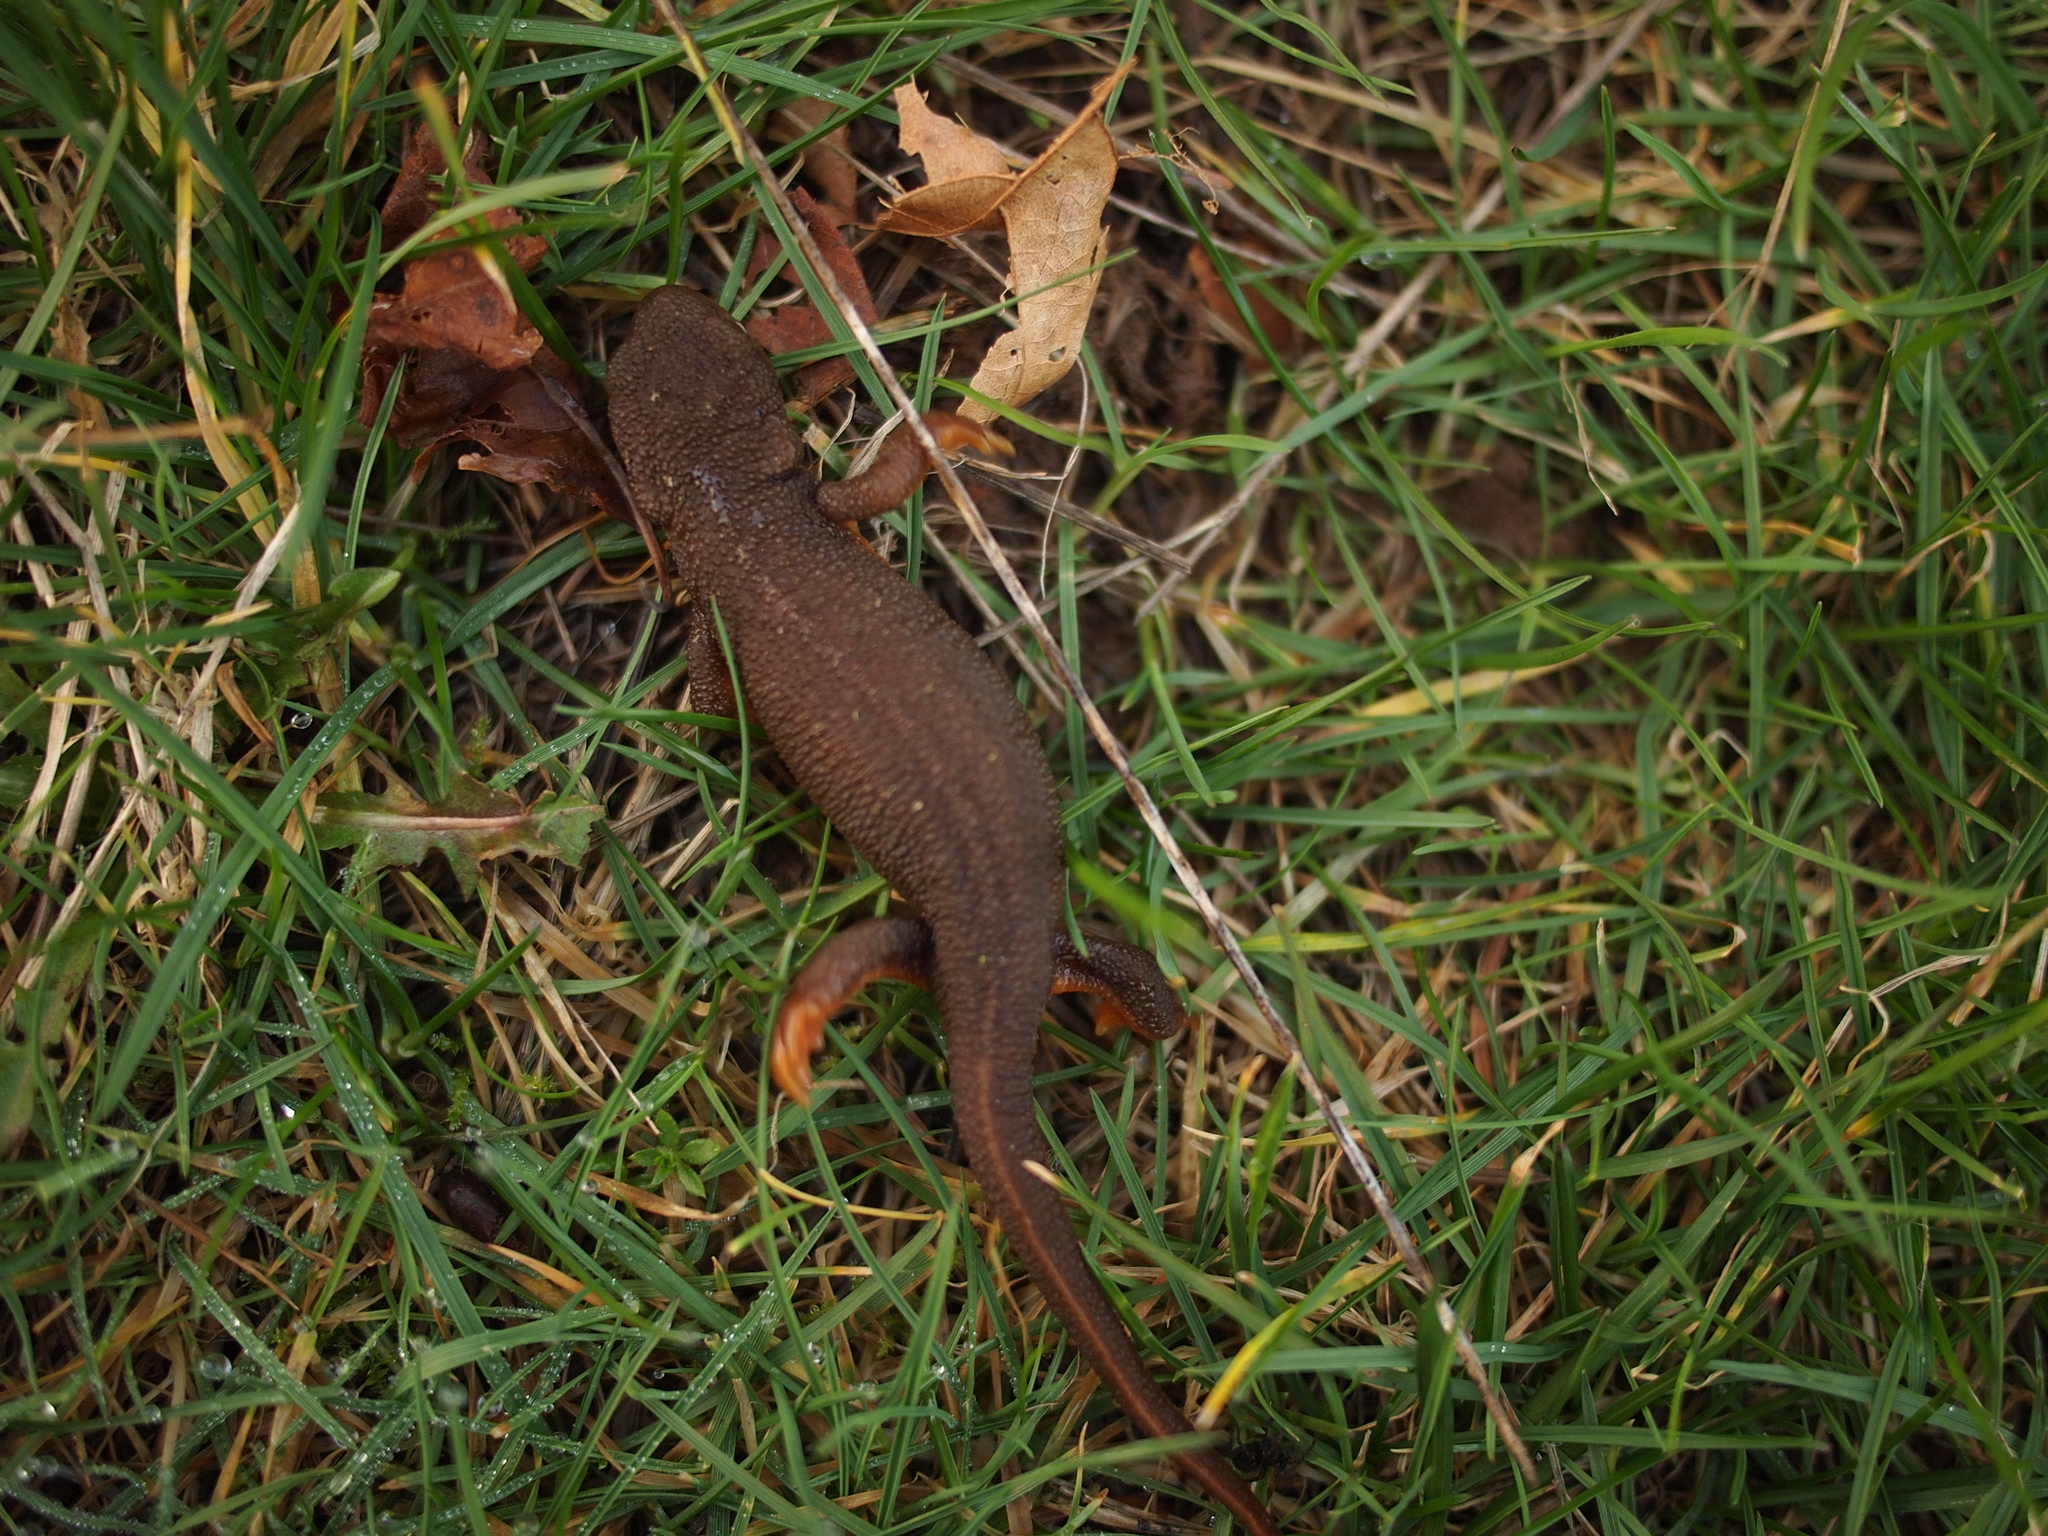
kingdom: Animalia
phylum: Chordata
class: Amphibia
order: Caudata
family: Salamandridae
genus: Taricha
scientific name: Taricha granulosa
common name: Roughskin newt
